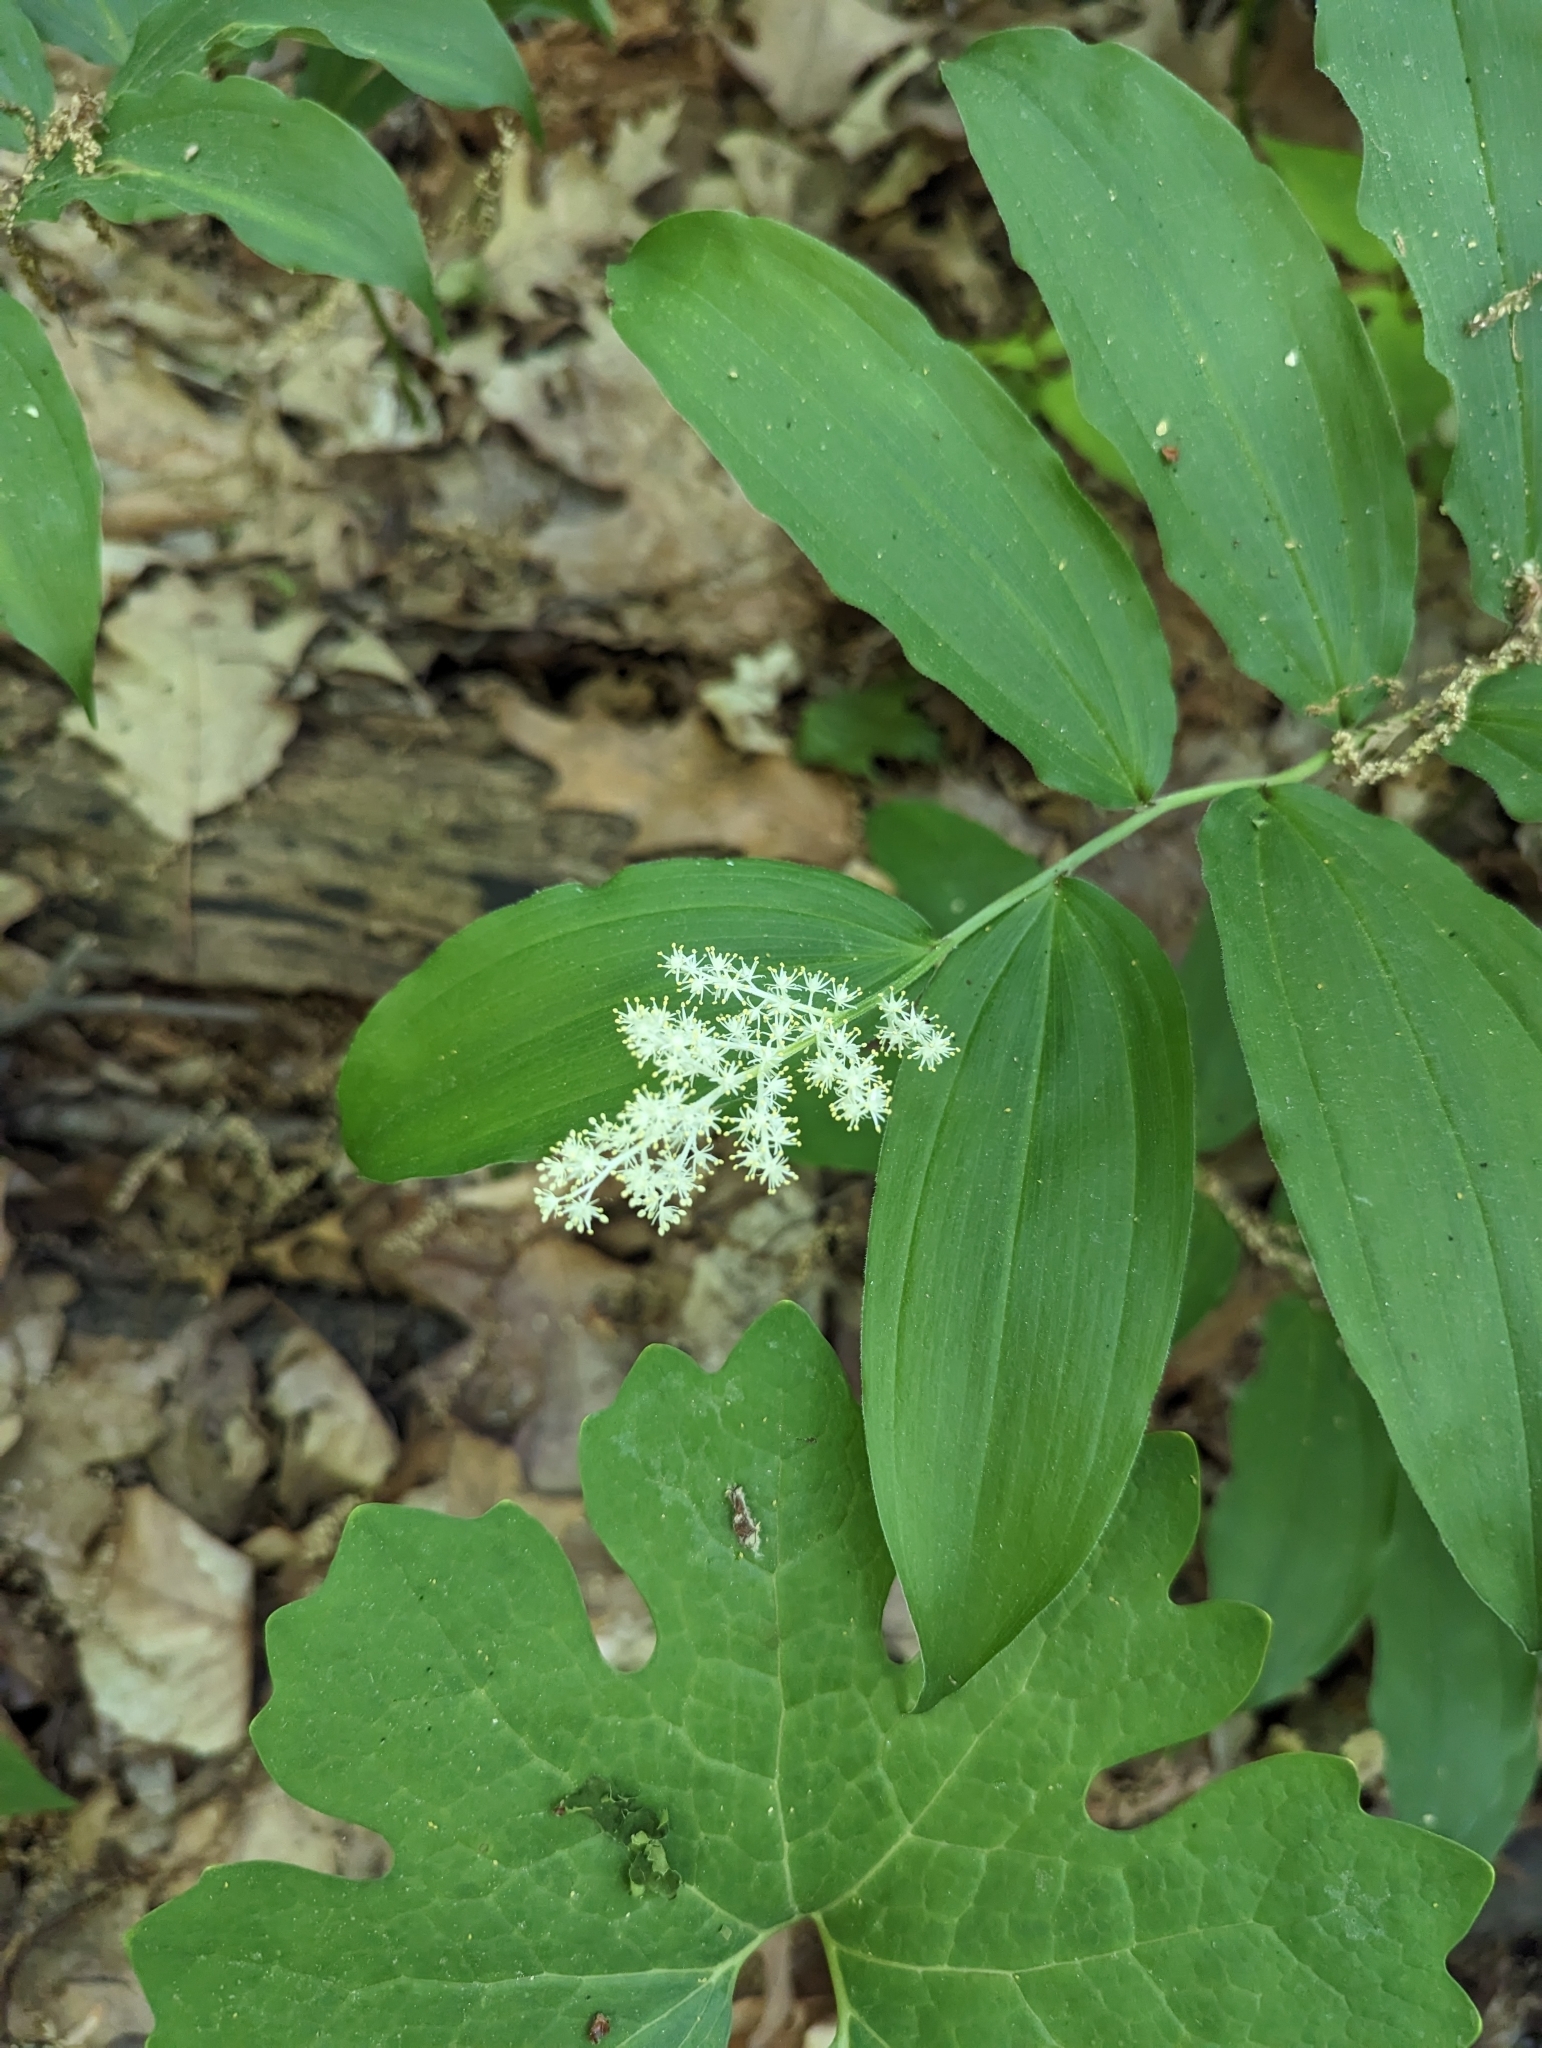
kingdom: Plantae
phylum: Tracheophyta
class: Liliopsida
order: Asparagales
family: Asparagaceae
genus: Maianthemum
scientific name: Maianthemum racemosum
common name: False spikenard
